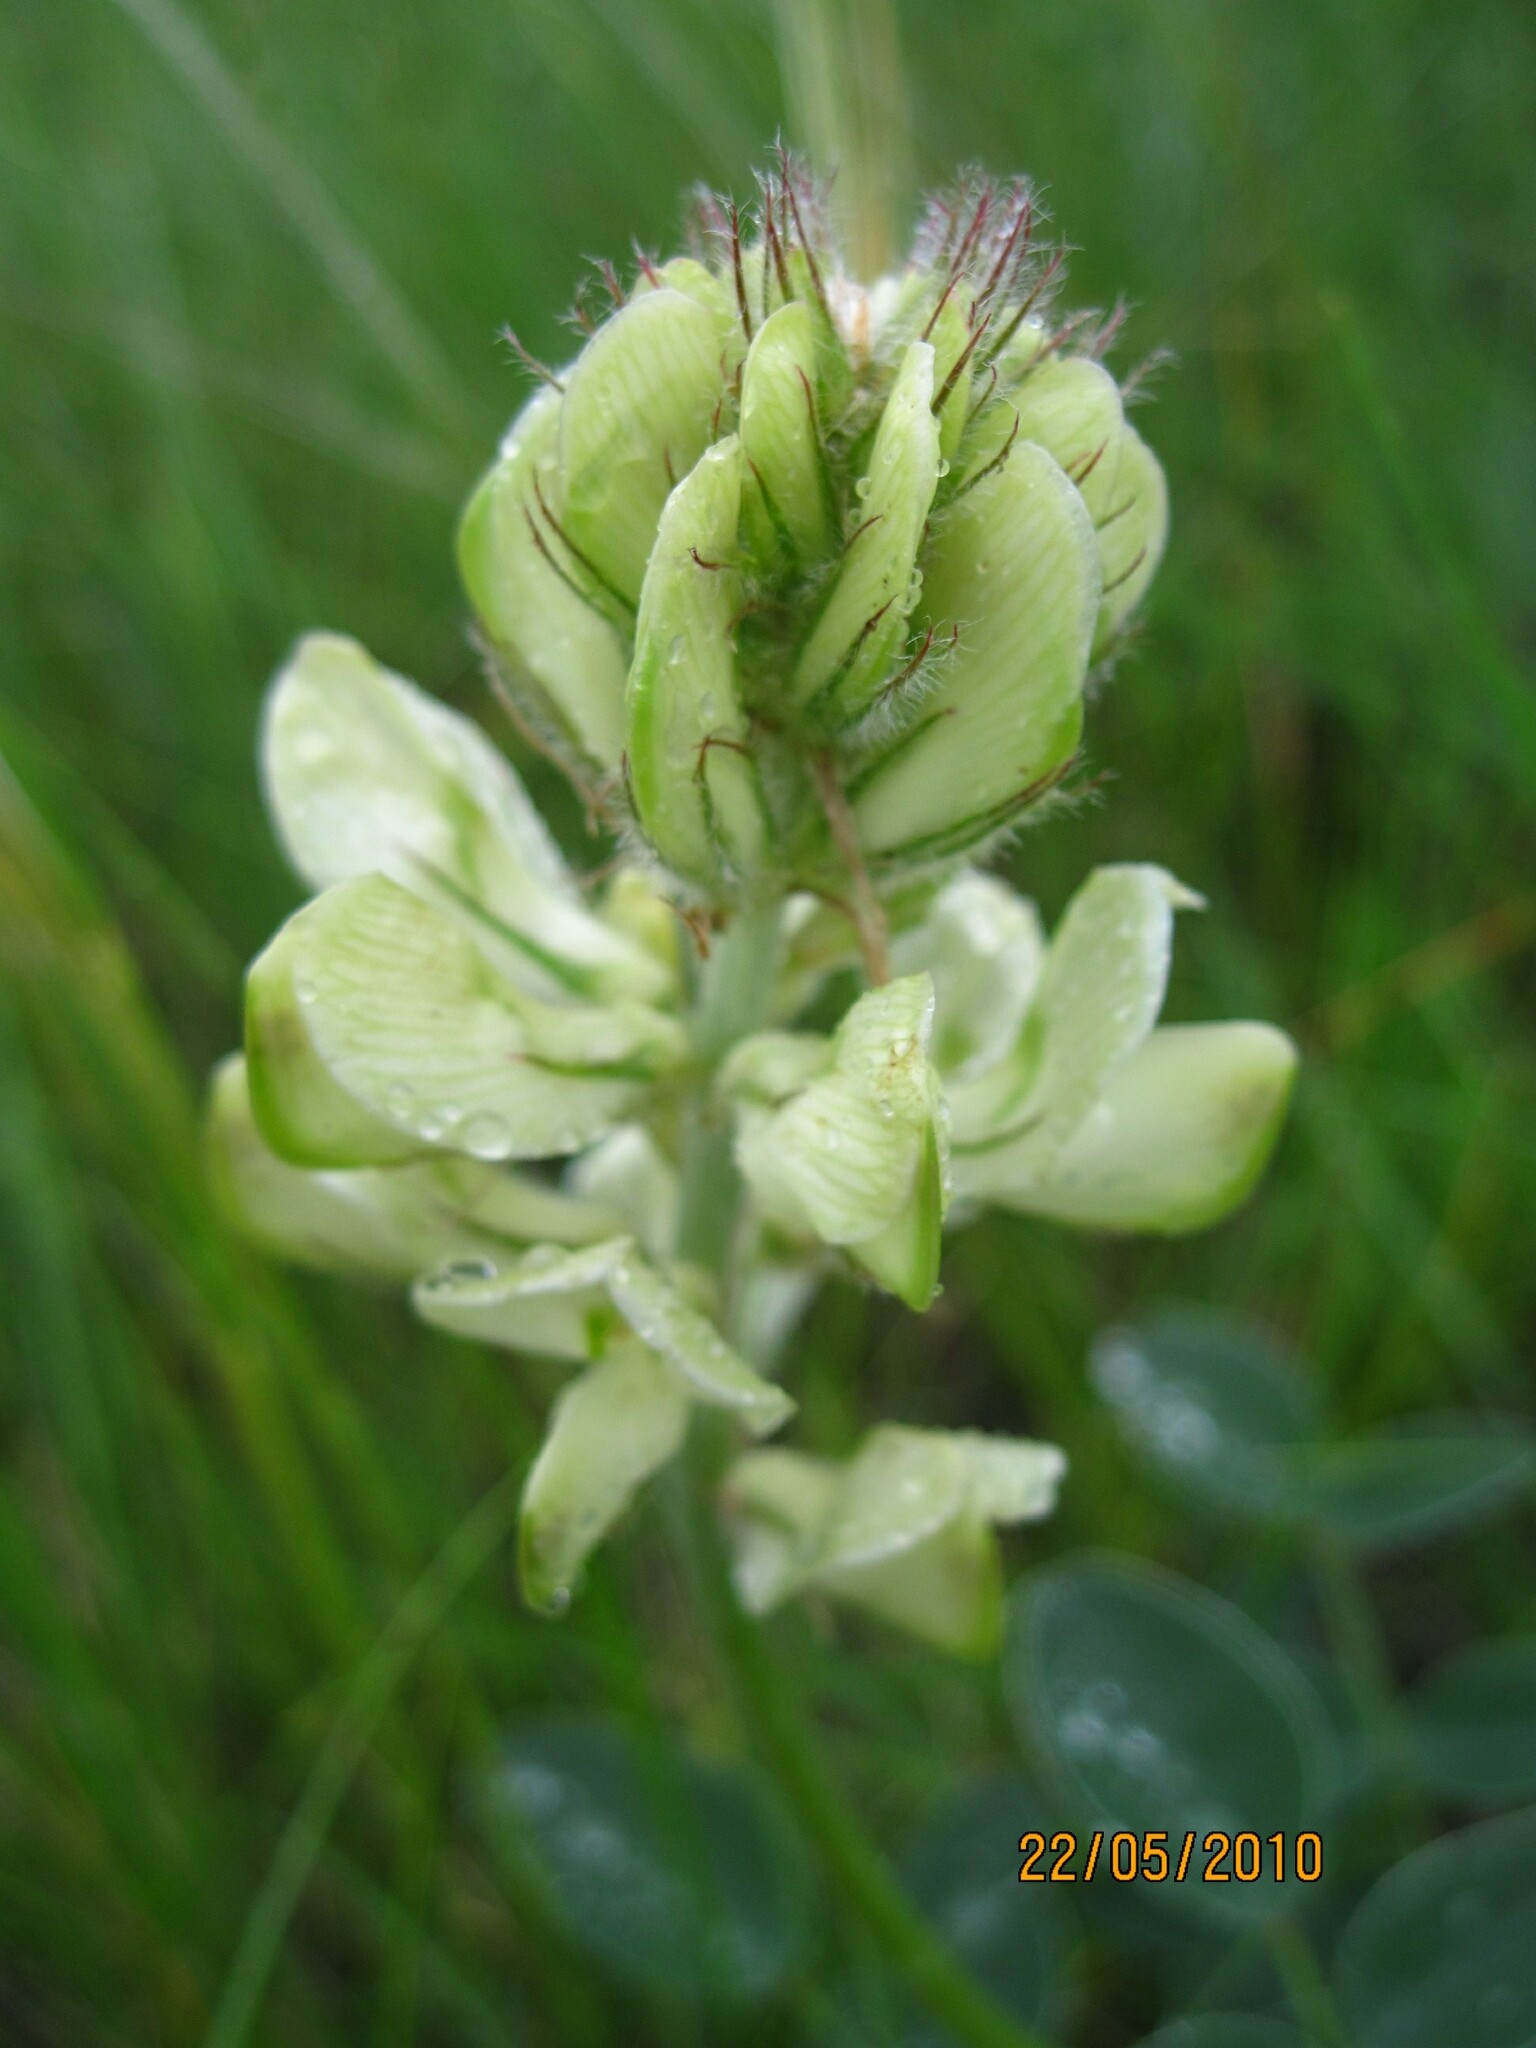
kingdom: Plantae
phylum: Tracheophyta
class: Magnoliopsida
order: Fabales
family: Fabaceae
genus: Hedysarum
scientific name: Hedysarum grandiflorum
